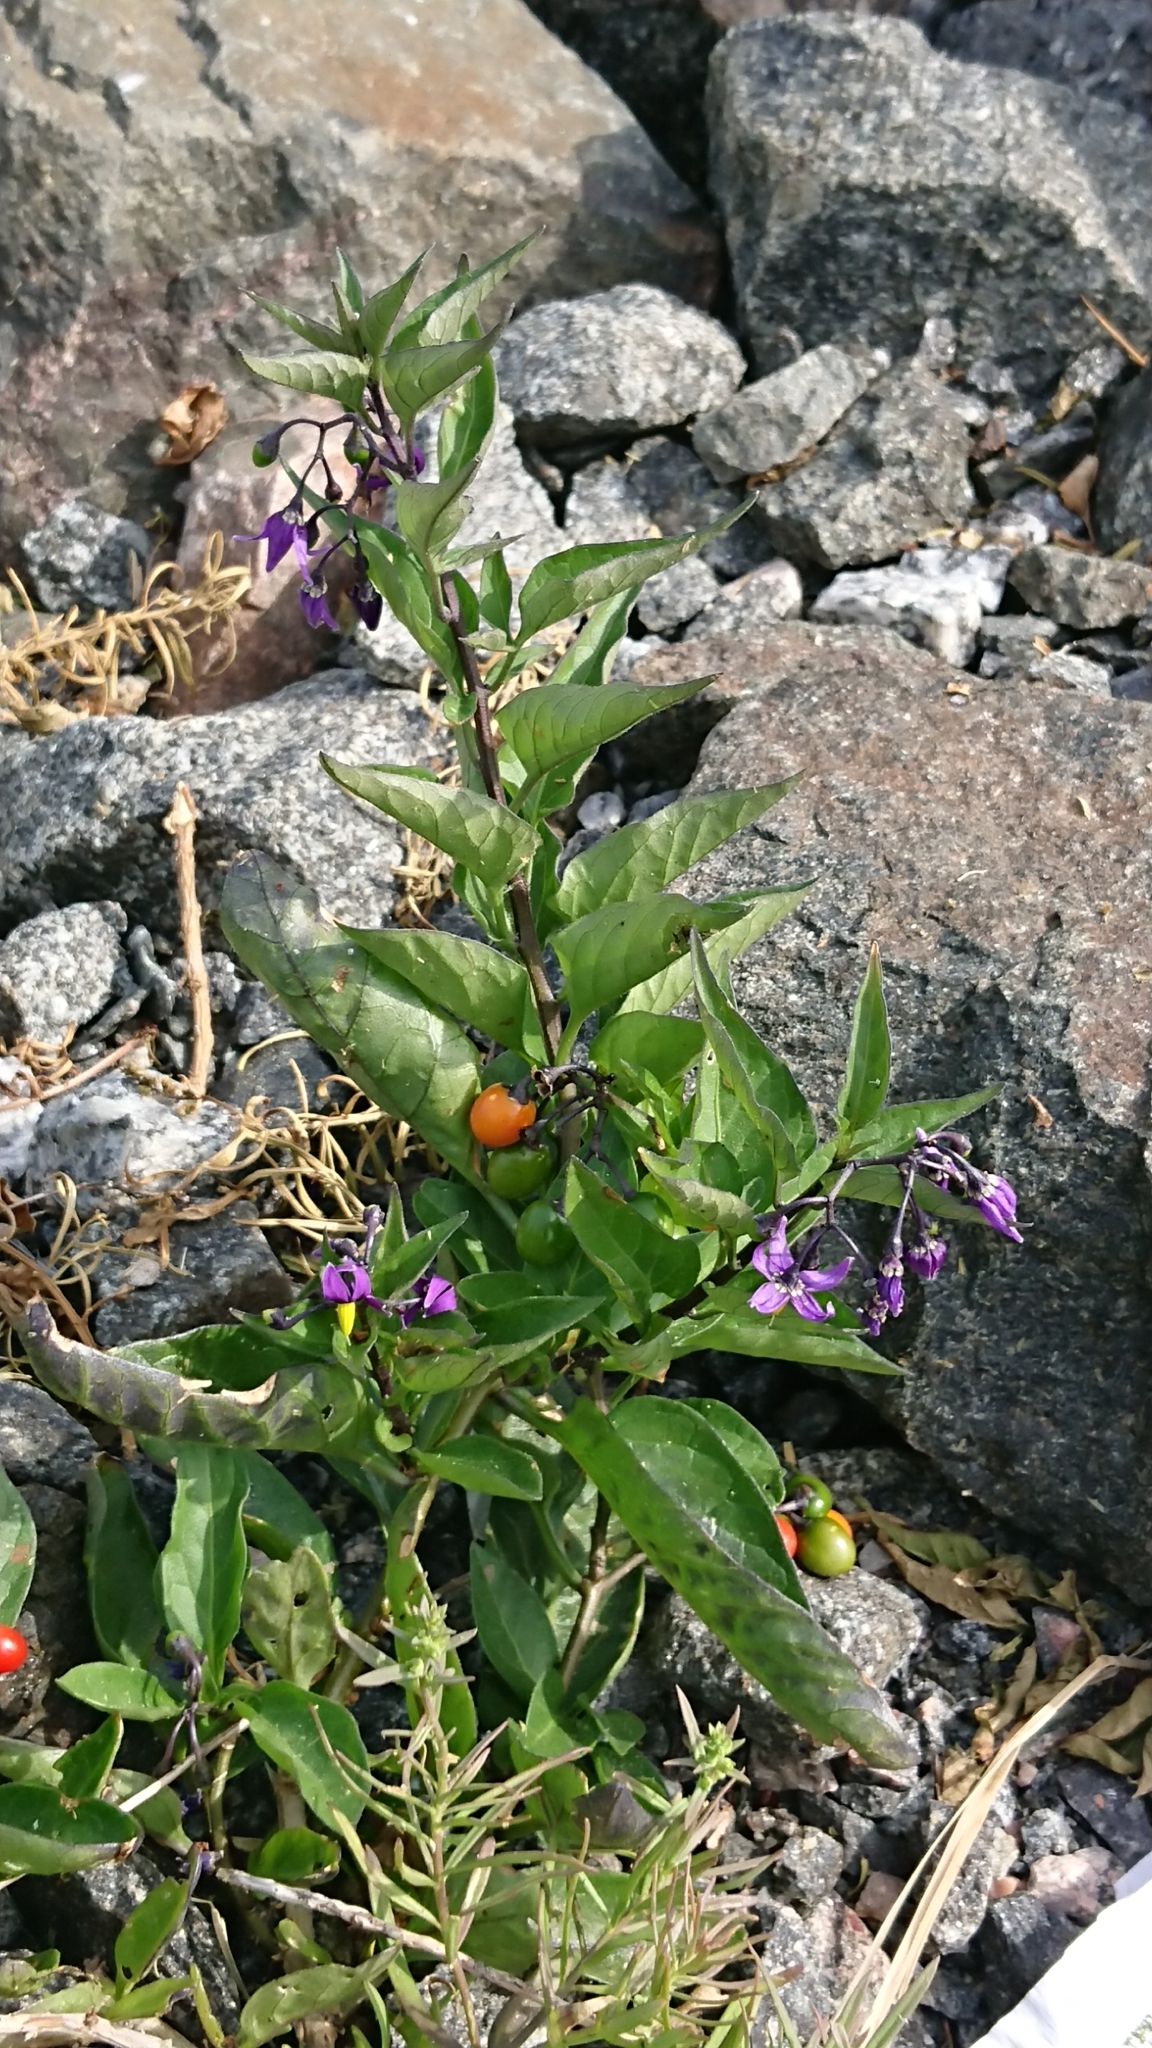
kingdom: Plantae
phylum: Tracheophyta
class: Magnoliopsida
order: Solanales
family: Solanaceae
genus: Solanum
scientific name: Solanum dulcamara
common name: Climbing nightshade
